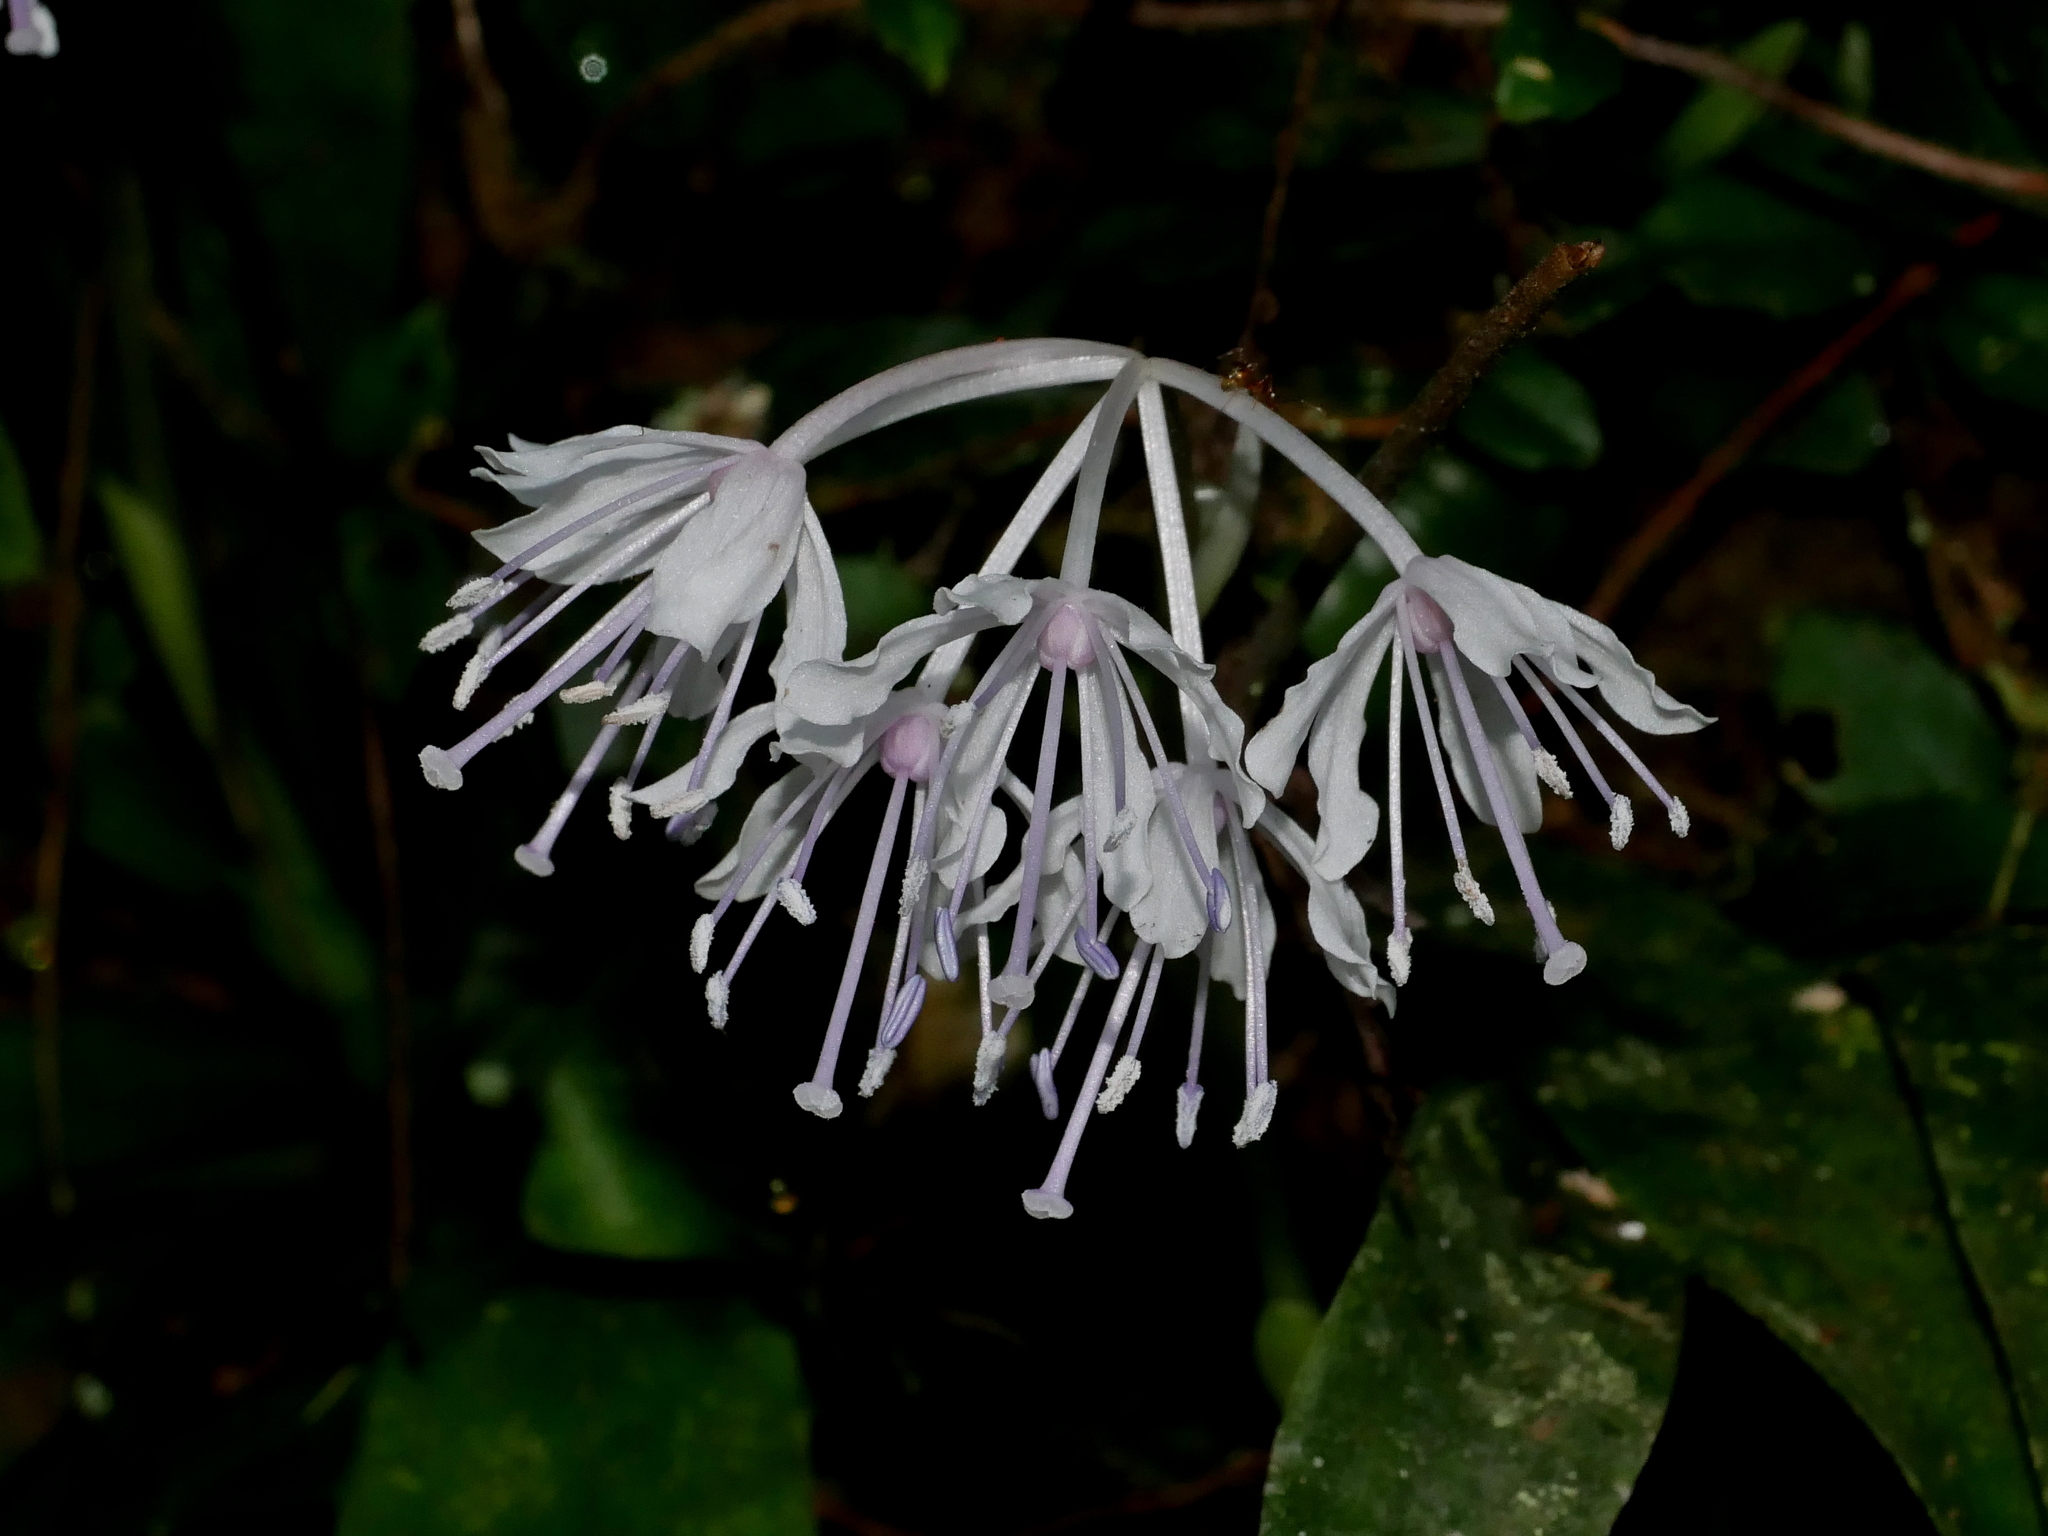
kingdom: Plantae
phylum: Tracheophyta
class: Liliopsida
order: Liliales
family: Melanthiaceae
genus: Helonias
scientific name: Helonias umbellata
